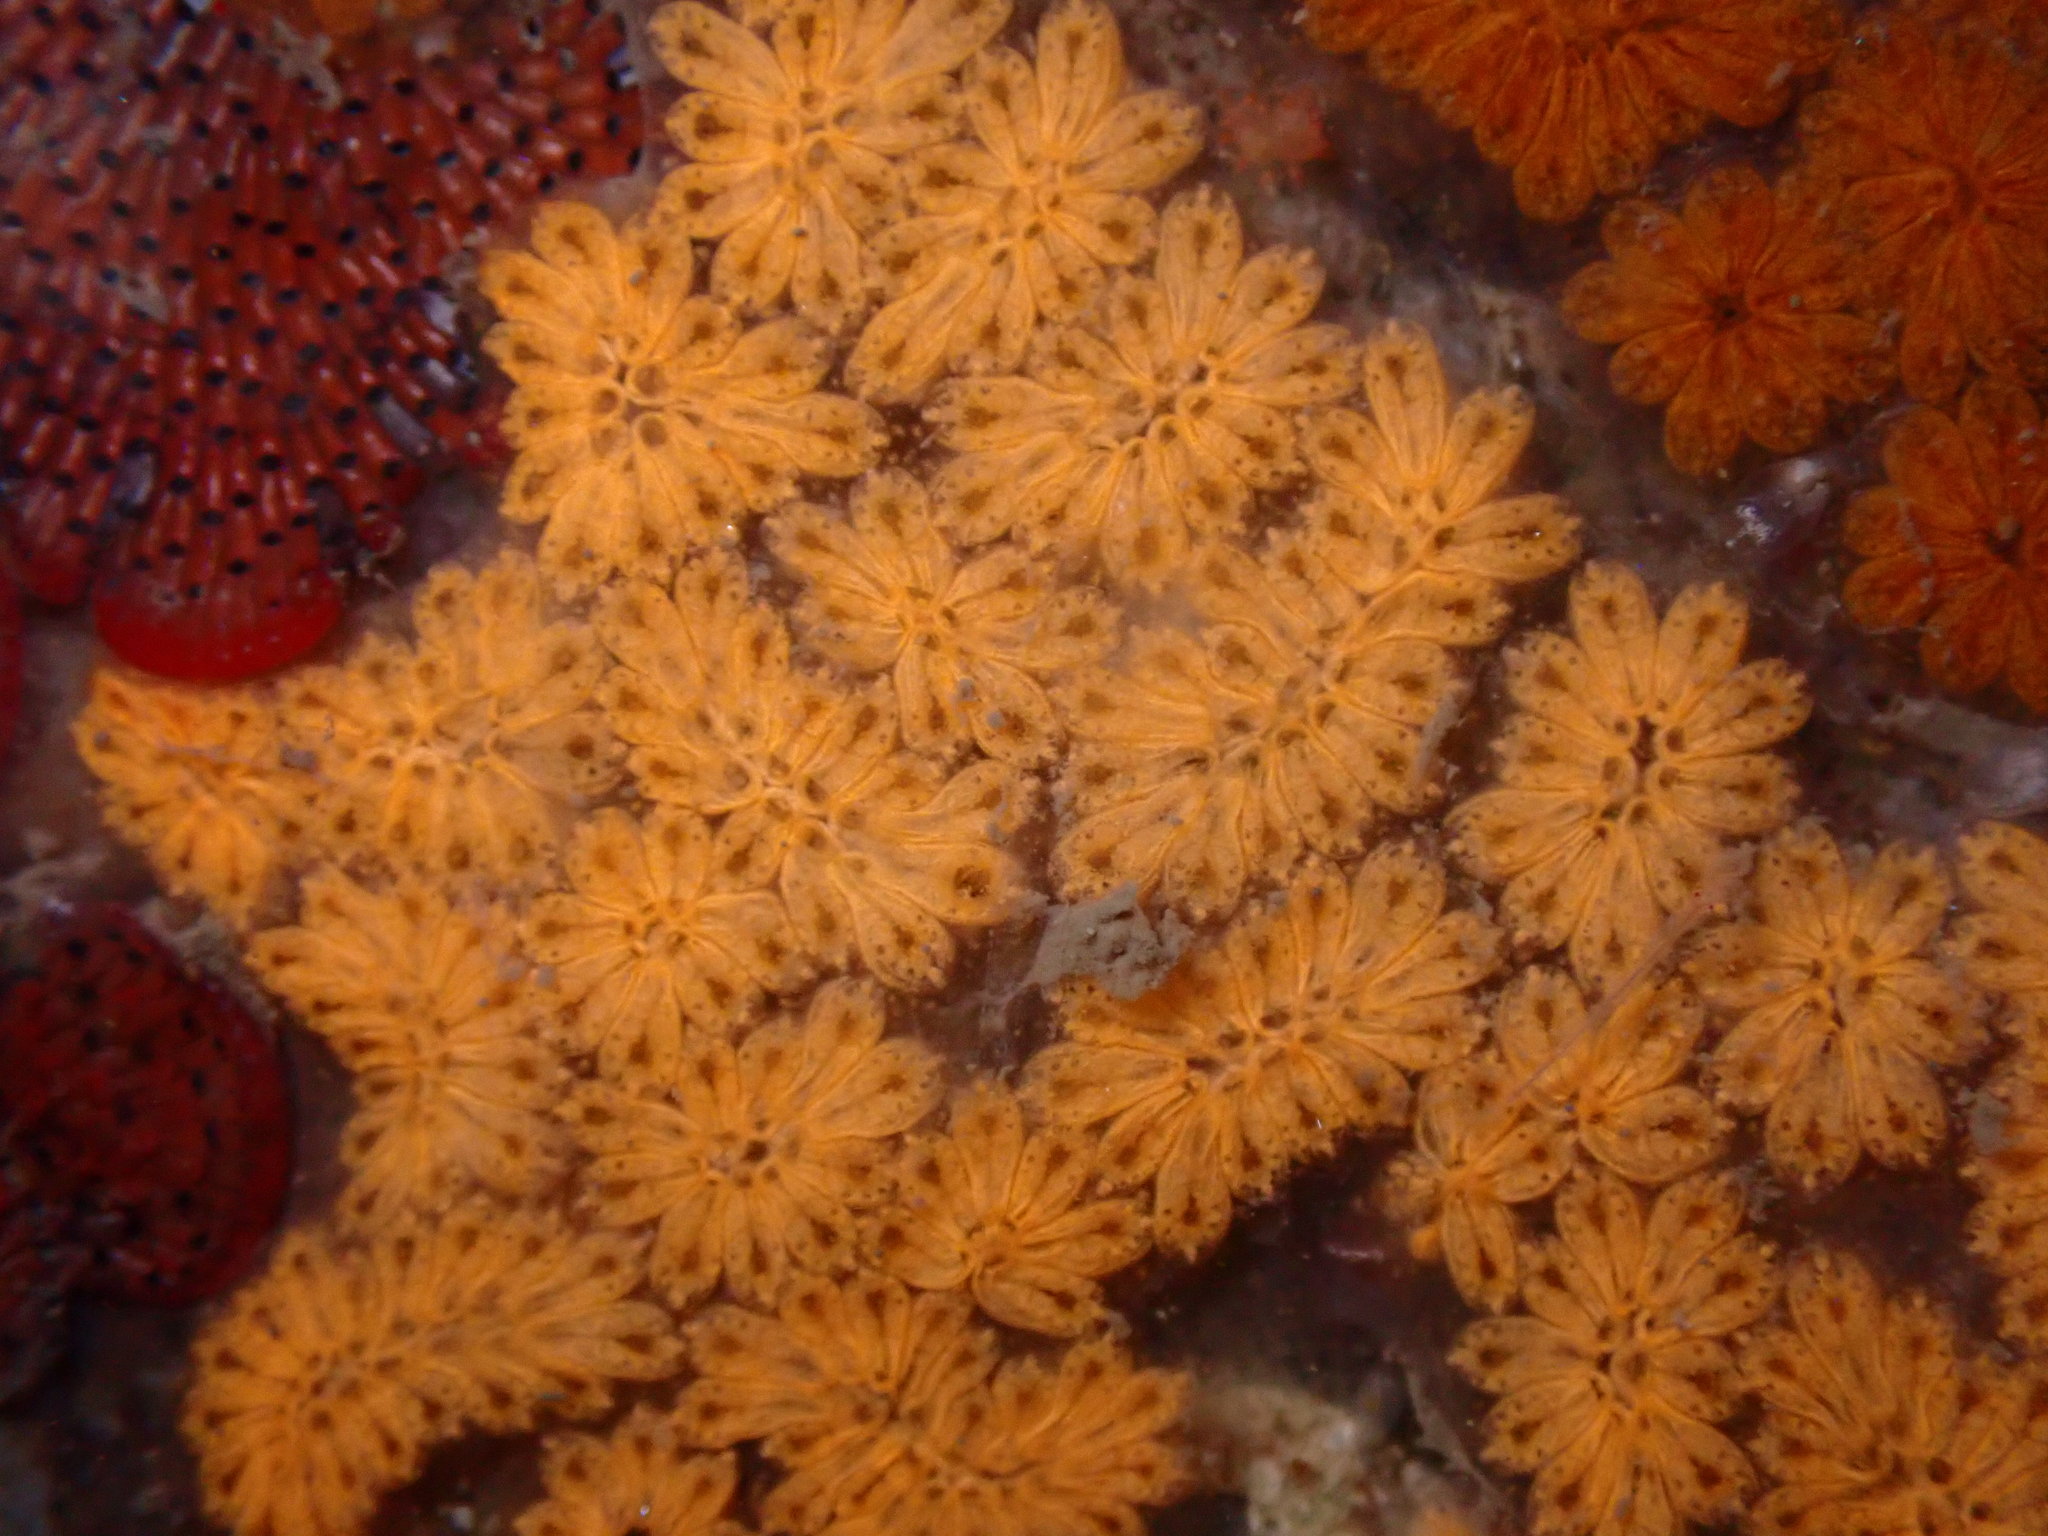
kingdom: Animalia
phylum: Chordata
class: Ascidiacea
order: Stolidobranchia
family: Styelidae
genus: Botryllus
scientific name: Botryllus schlosseri
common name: Golden star tunicate
